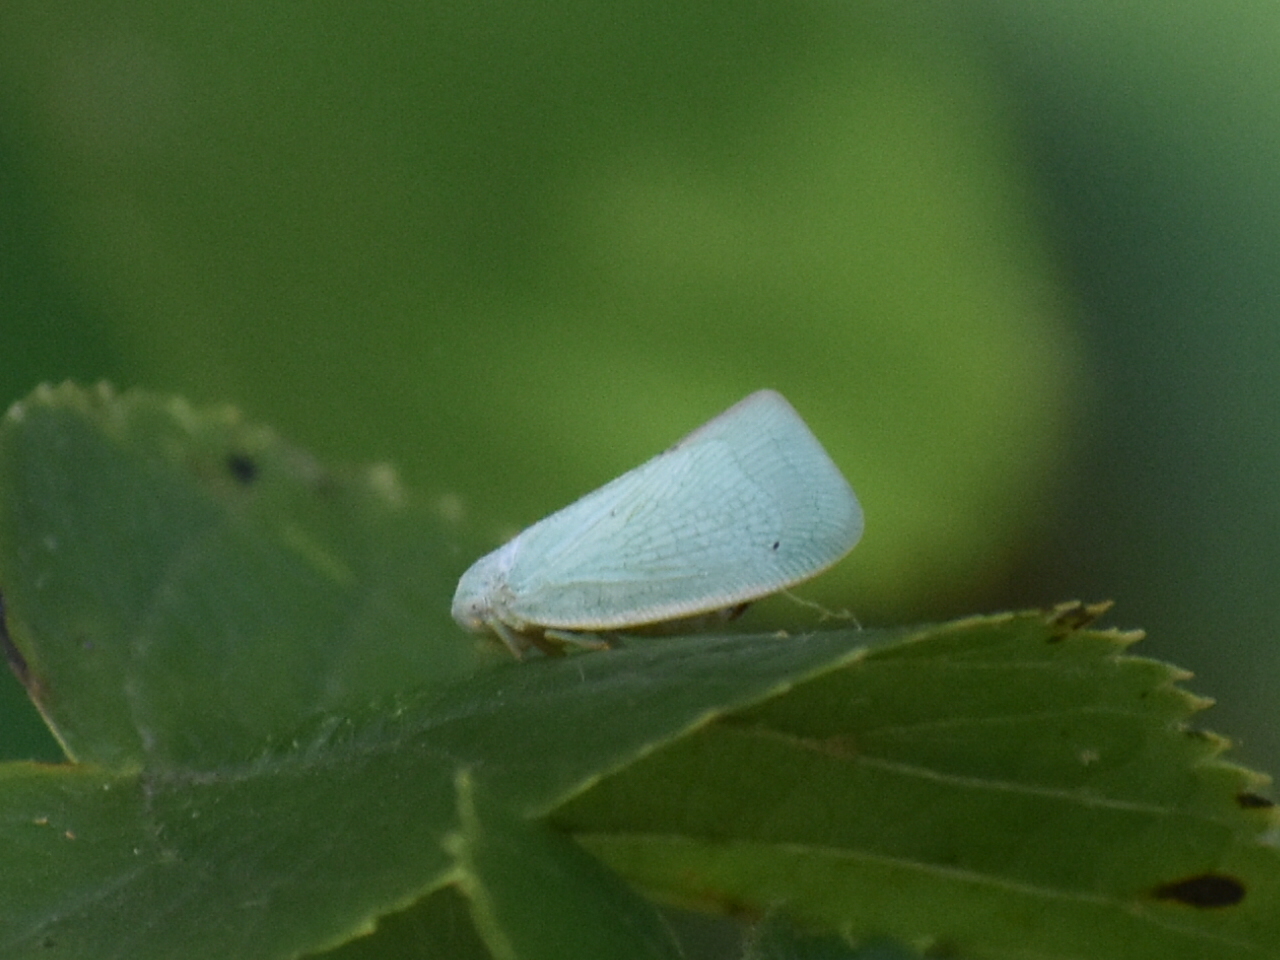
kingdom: Animalia
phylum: Arthropoda
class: Insecta
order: Hemiptera
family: Flatidae
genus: Flatormenis
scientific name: Flatormenis proxima
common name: Northern flatid planthopper
